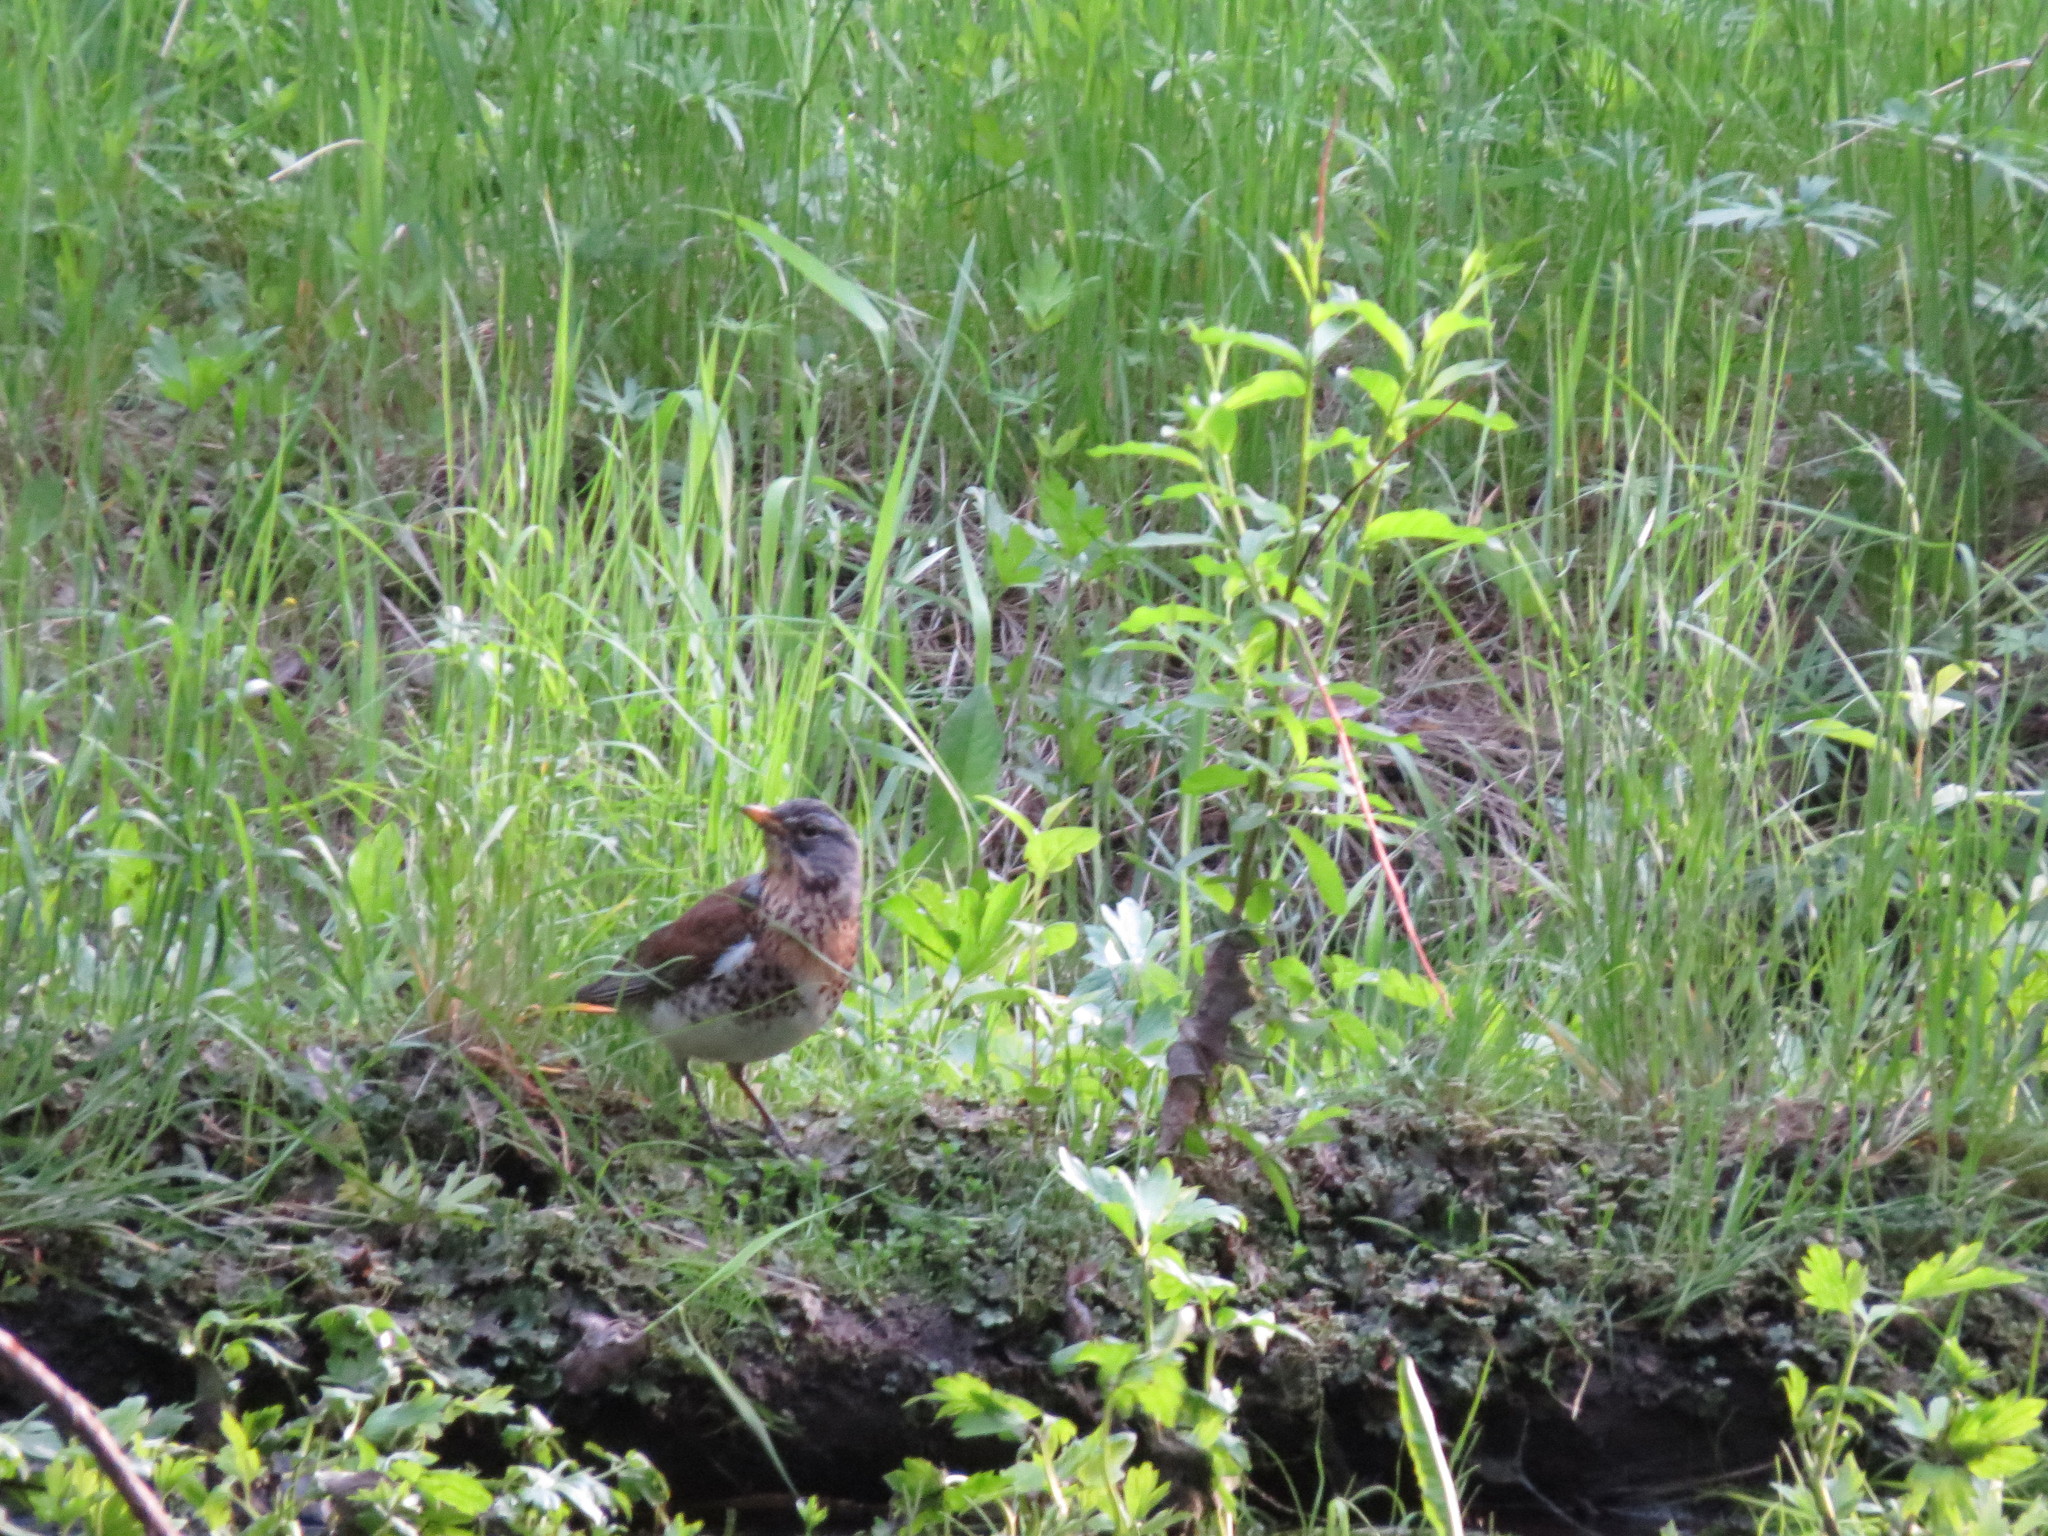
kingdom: Animalia
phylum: Chordata
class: Aves
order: Passeriformes
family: Turdidae
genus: Turdus
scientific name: Turdus pilaris
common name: Fieldfare
